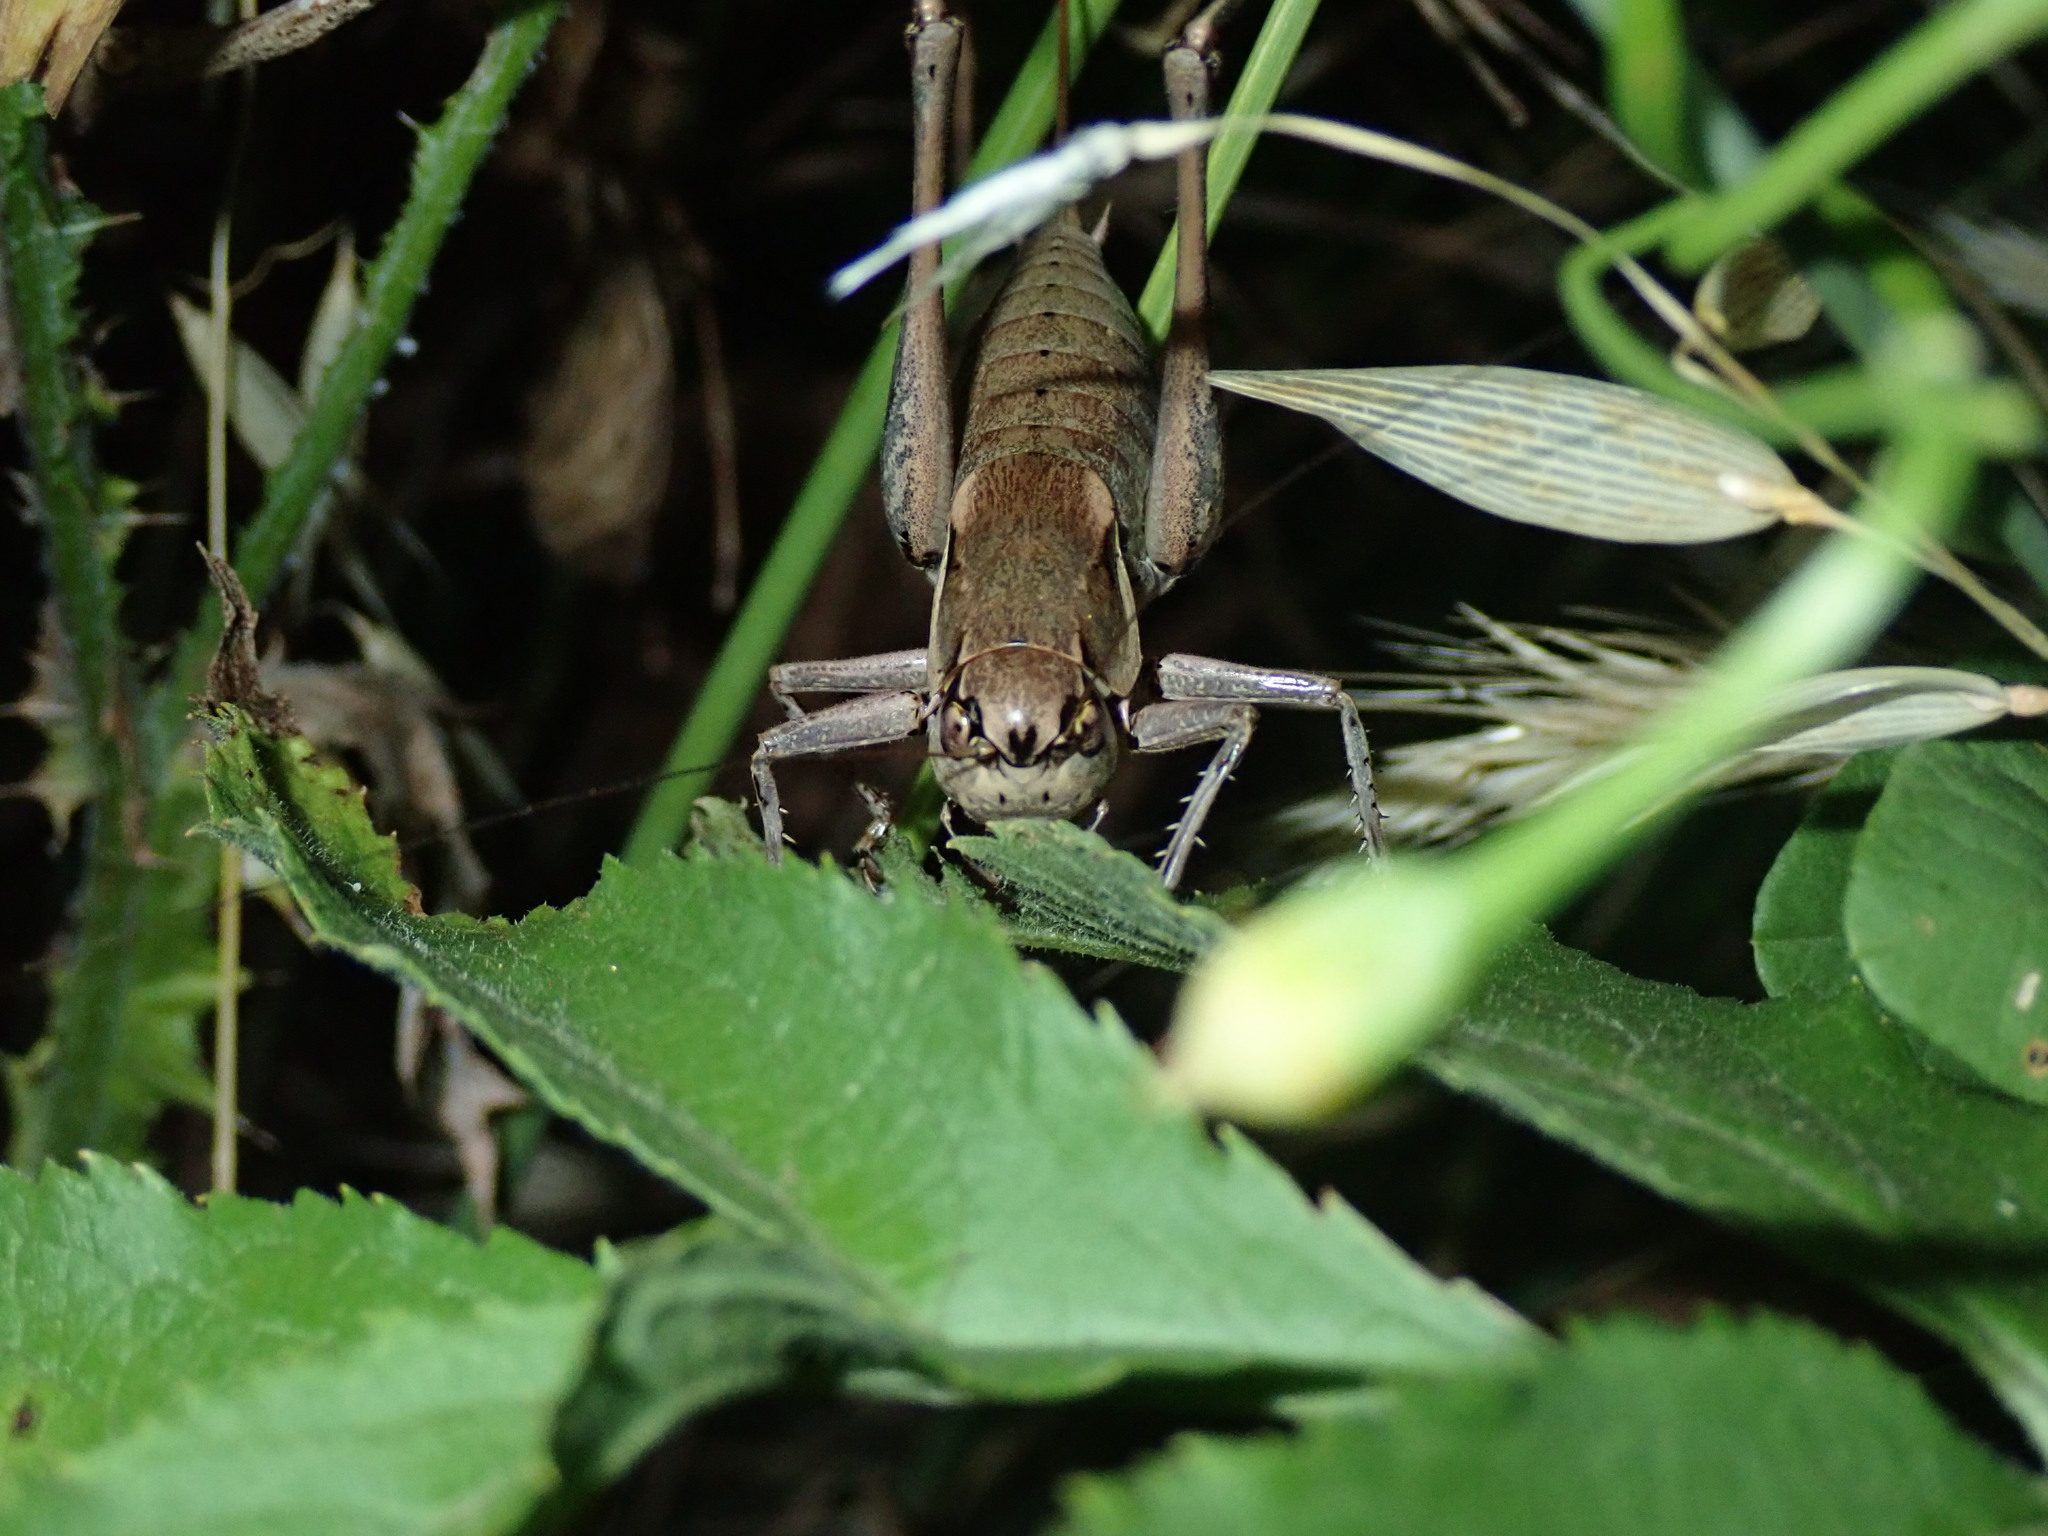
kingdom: Animalia
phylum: Arthropoda
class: Insecta
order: Orthoptera
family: Tettigoniidae
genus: Pholidoptera
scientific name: Pholidoptera dalmatica
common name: Dalmatian dark bush-cricket
